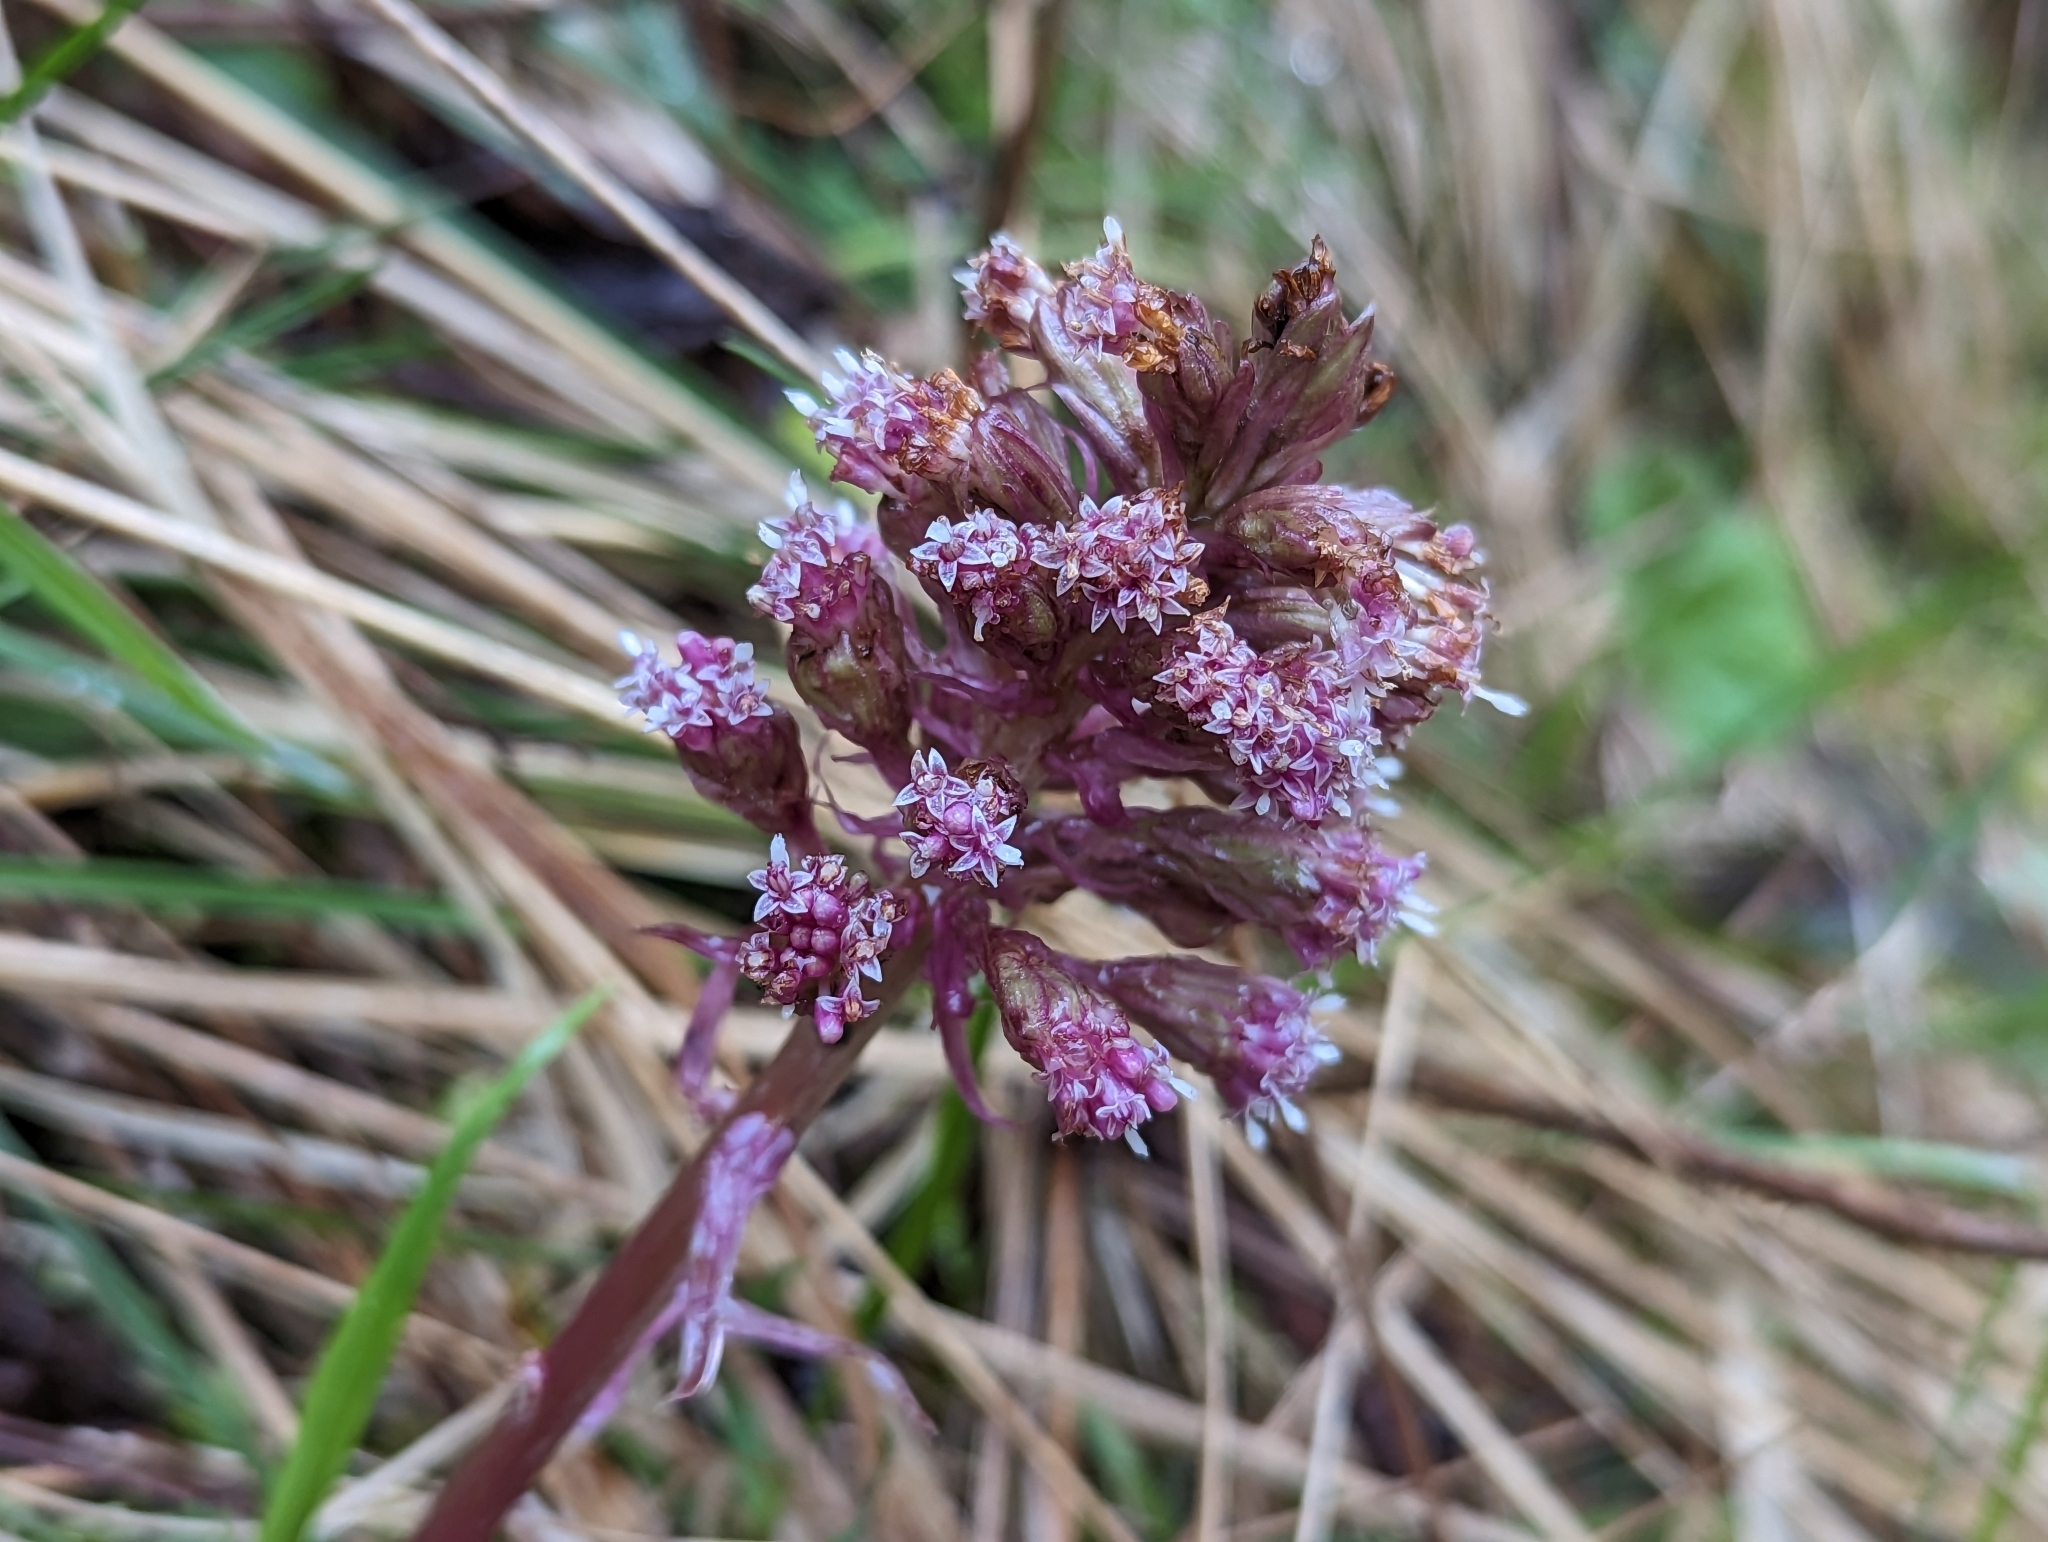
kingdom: Plantae
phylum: Tracheophyta
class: Magnoliopsida
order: Asterales
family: Asteraceae
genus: Petasites
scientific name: Petasites hybridus
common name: Butterbur
